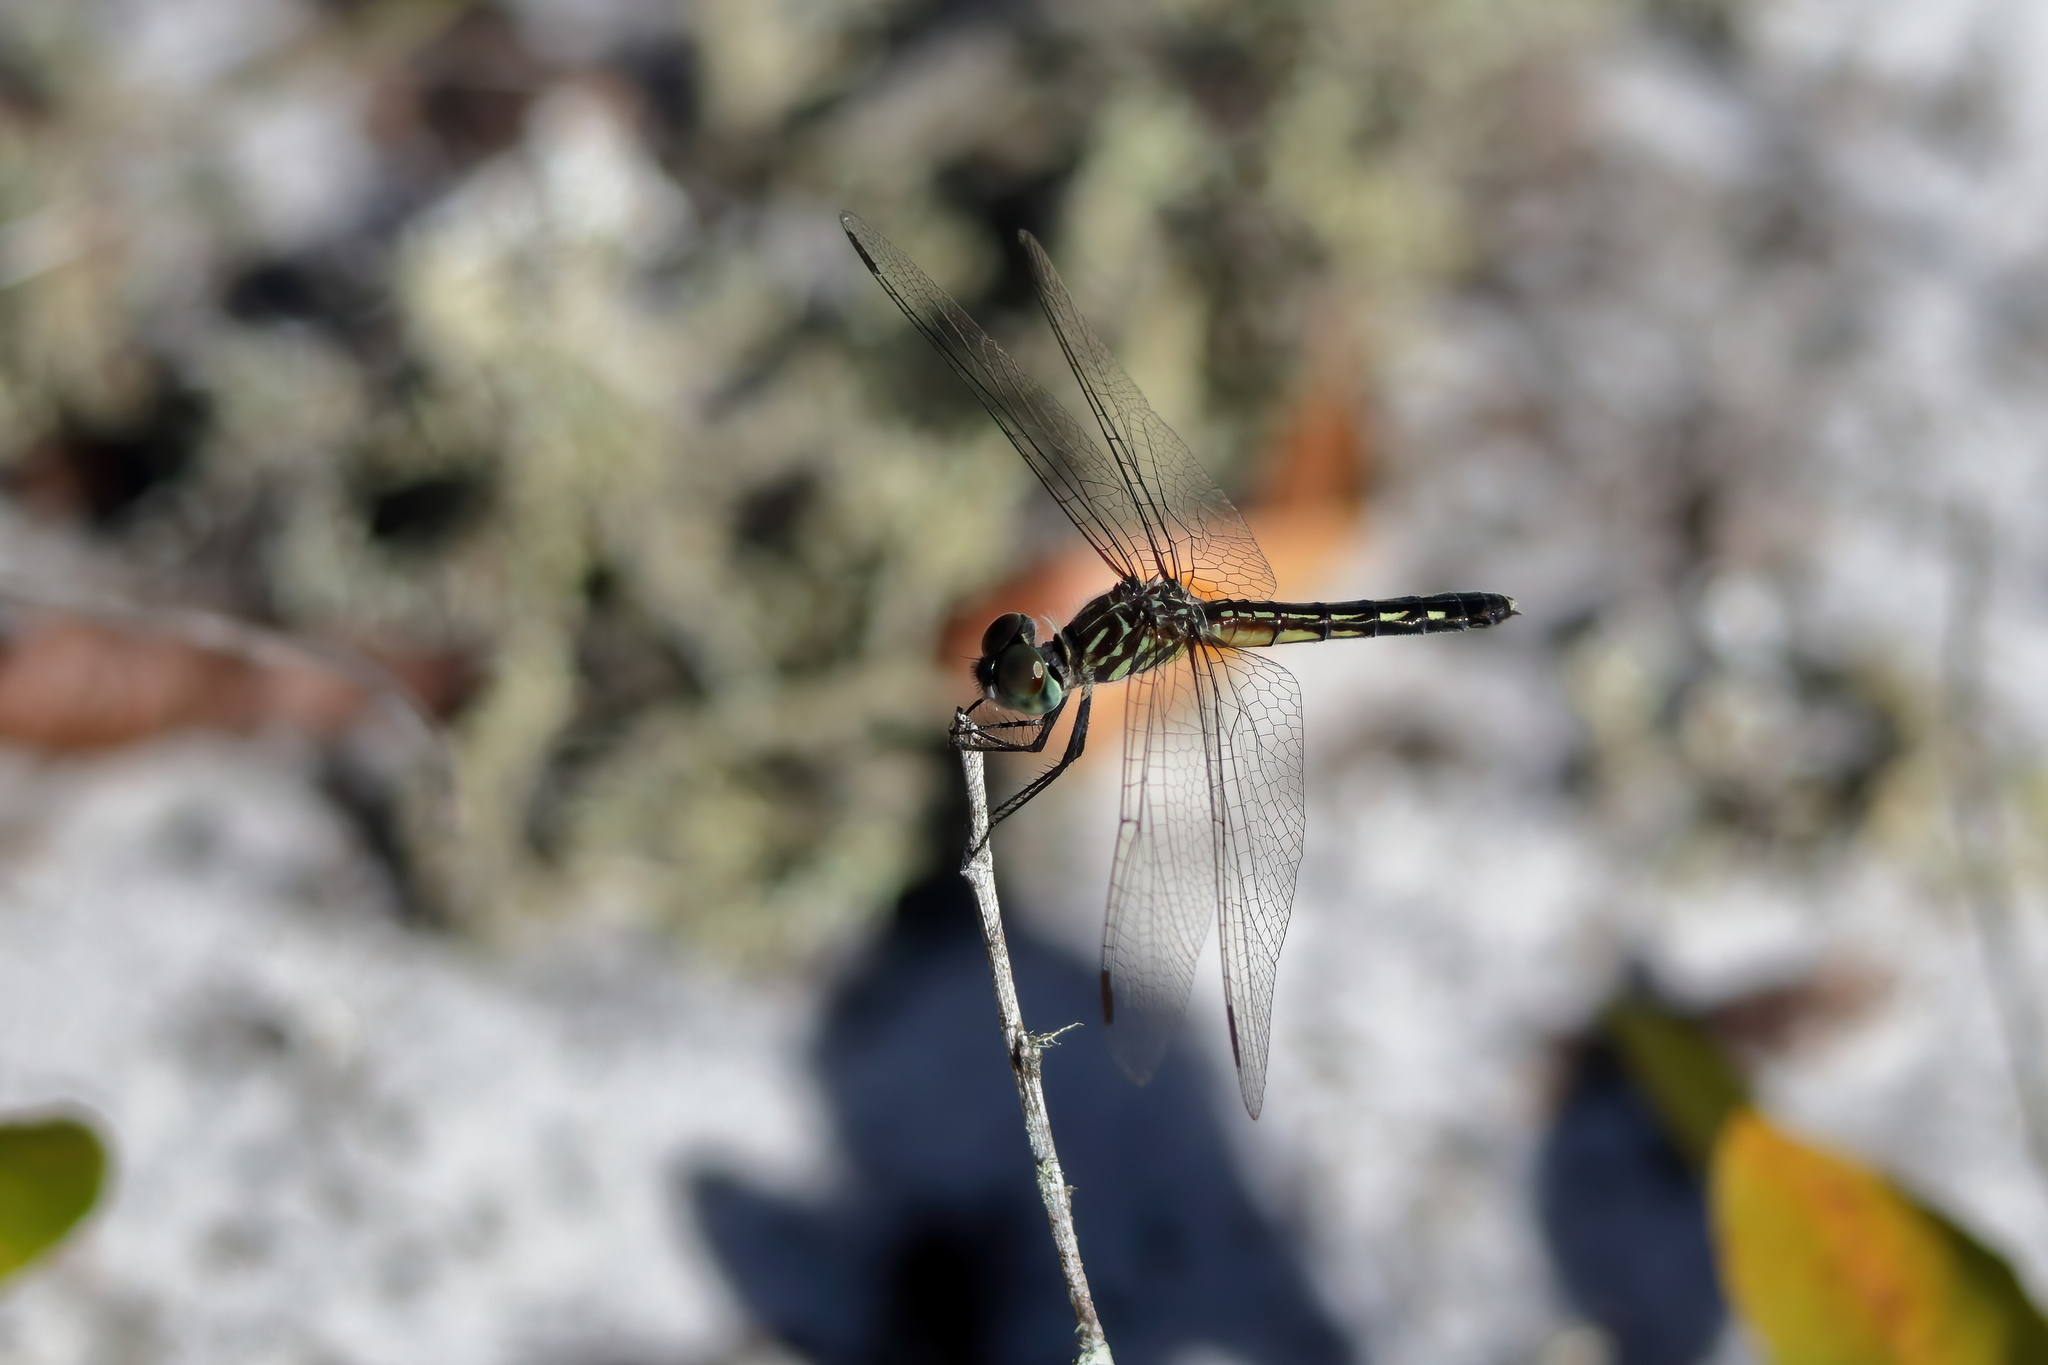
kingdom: Animalia
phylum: Arthropoda
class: Insecta
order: Odonata
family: Libellulidae
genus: Pachydiplax
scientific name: Pachydiplax longipennis
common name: Blue dasher
